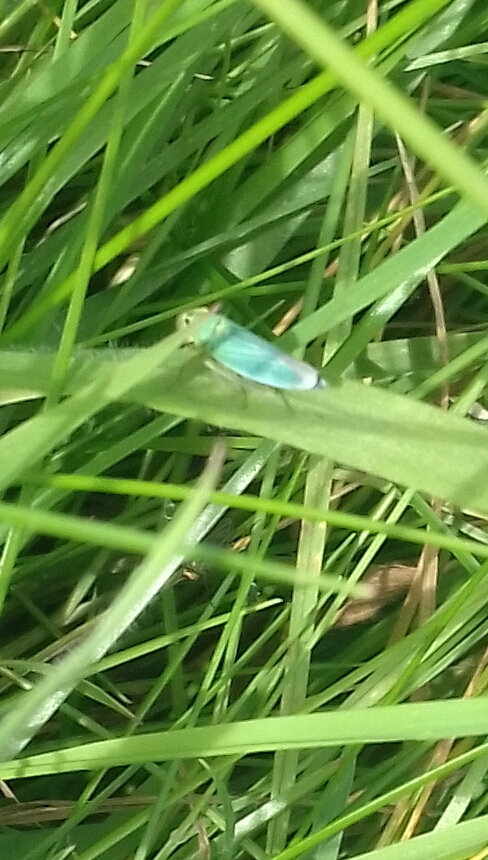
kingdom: Animalia
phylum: Arthropoda
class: Insecta
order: Hemiptera
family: Cicadellidae
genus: Cicadella
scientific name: Cicadella viridis
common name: Leafhopper
